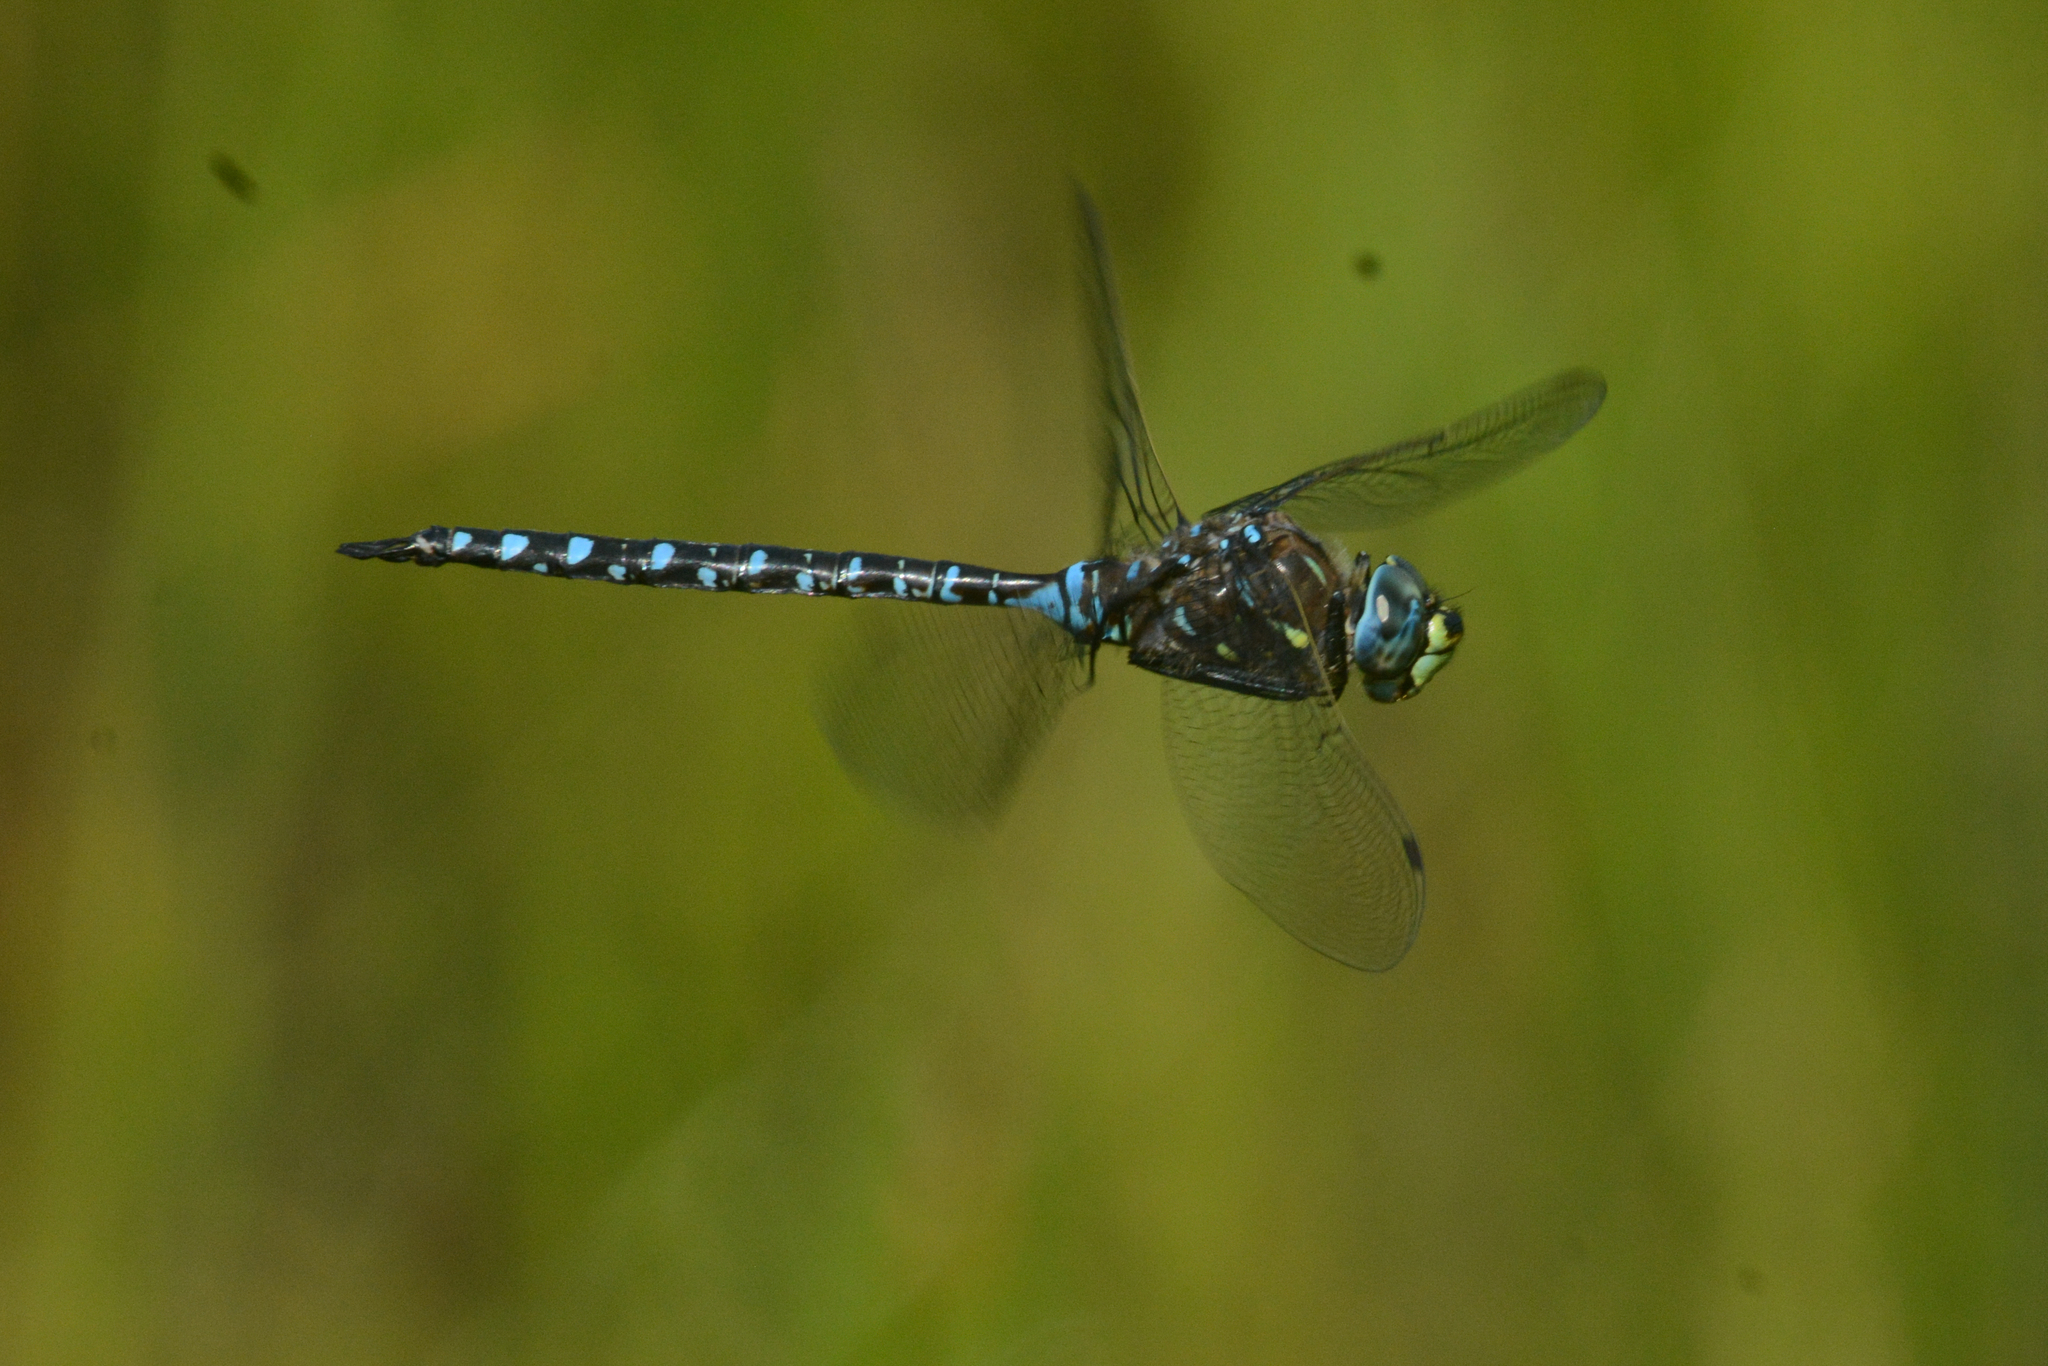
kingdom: Animalia
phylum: Arthropoda
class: Insecta
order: Odonata
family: Aeshnidae
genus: Aeshna
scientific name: Aeshna interrupta
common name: Variable darner
